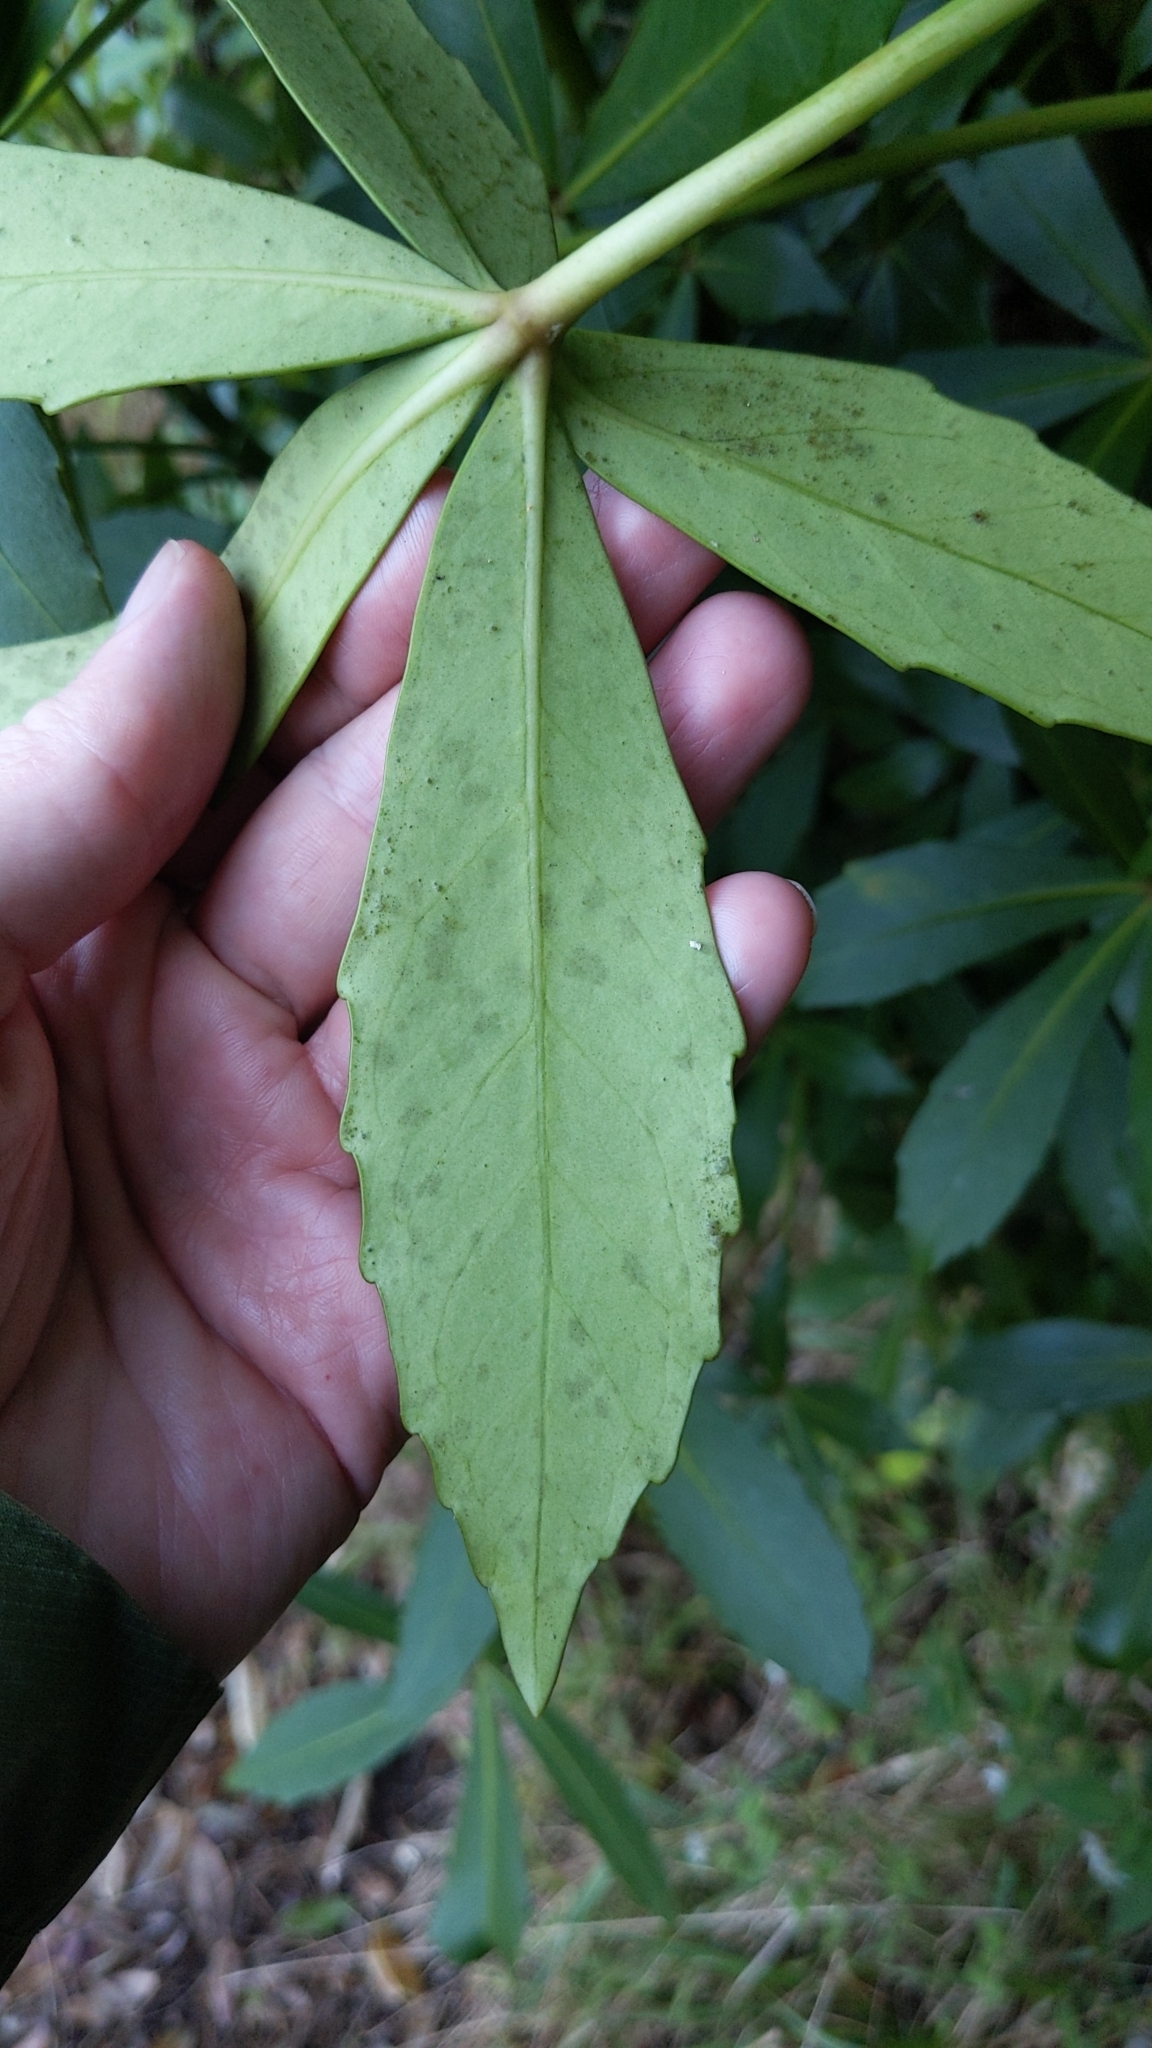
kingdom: Plantae
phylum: Tracheophyta
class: Magnoliopsida
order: Apiales
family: Araliaceae
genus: Pseudopanax
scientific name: Pseudopanax lessonii
